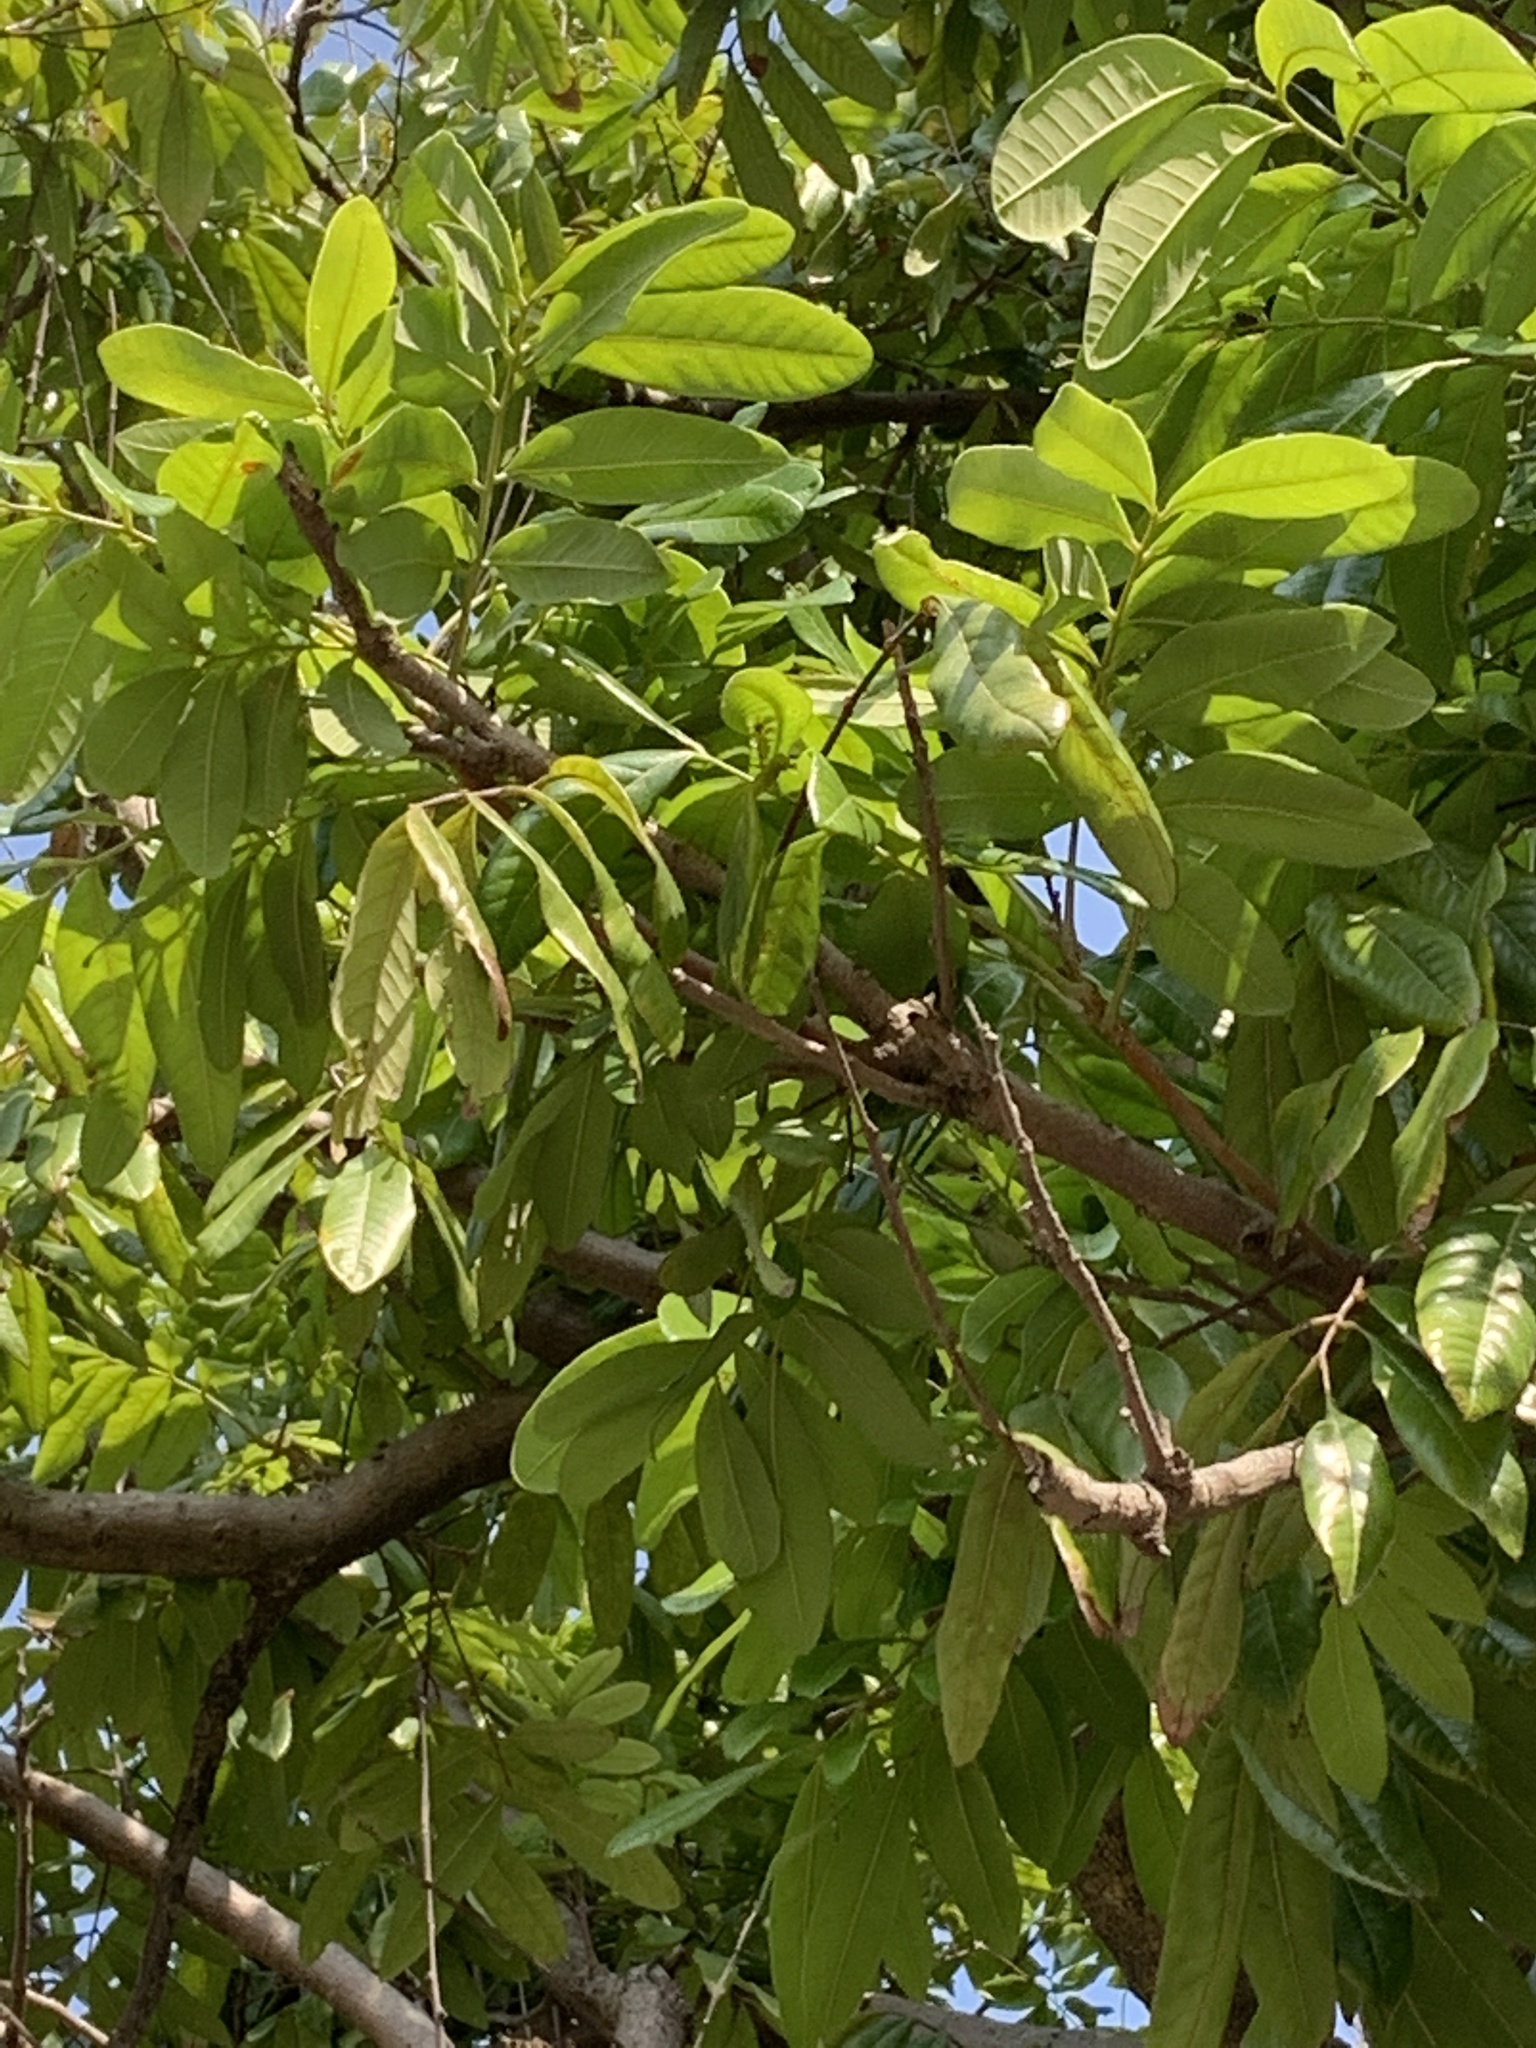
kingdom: Plantae
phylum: Tracheophyta
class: Magnoliopsida
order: Sapindales
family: Sapindaceae
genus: Dimocarpus
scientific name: Dimocarpus longan
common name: Longan
